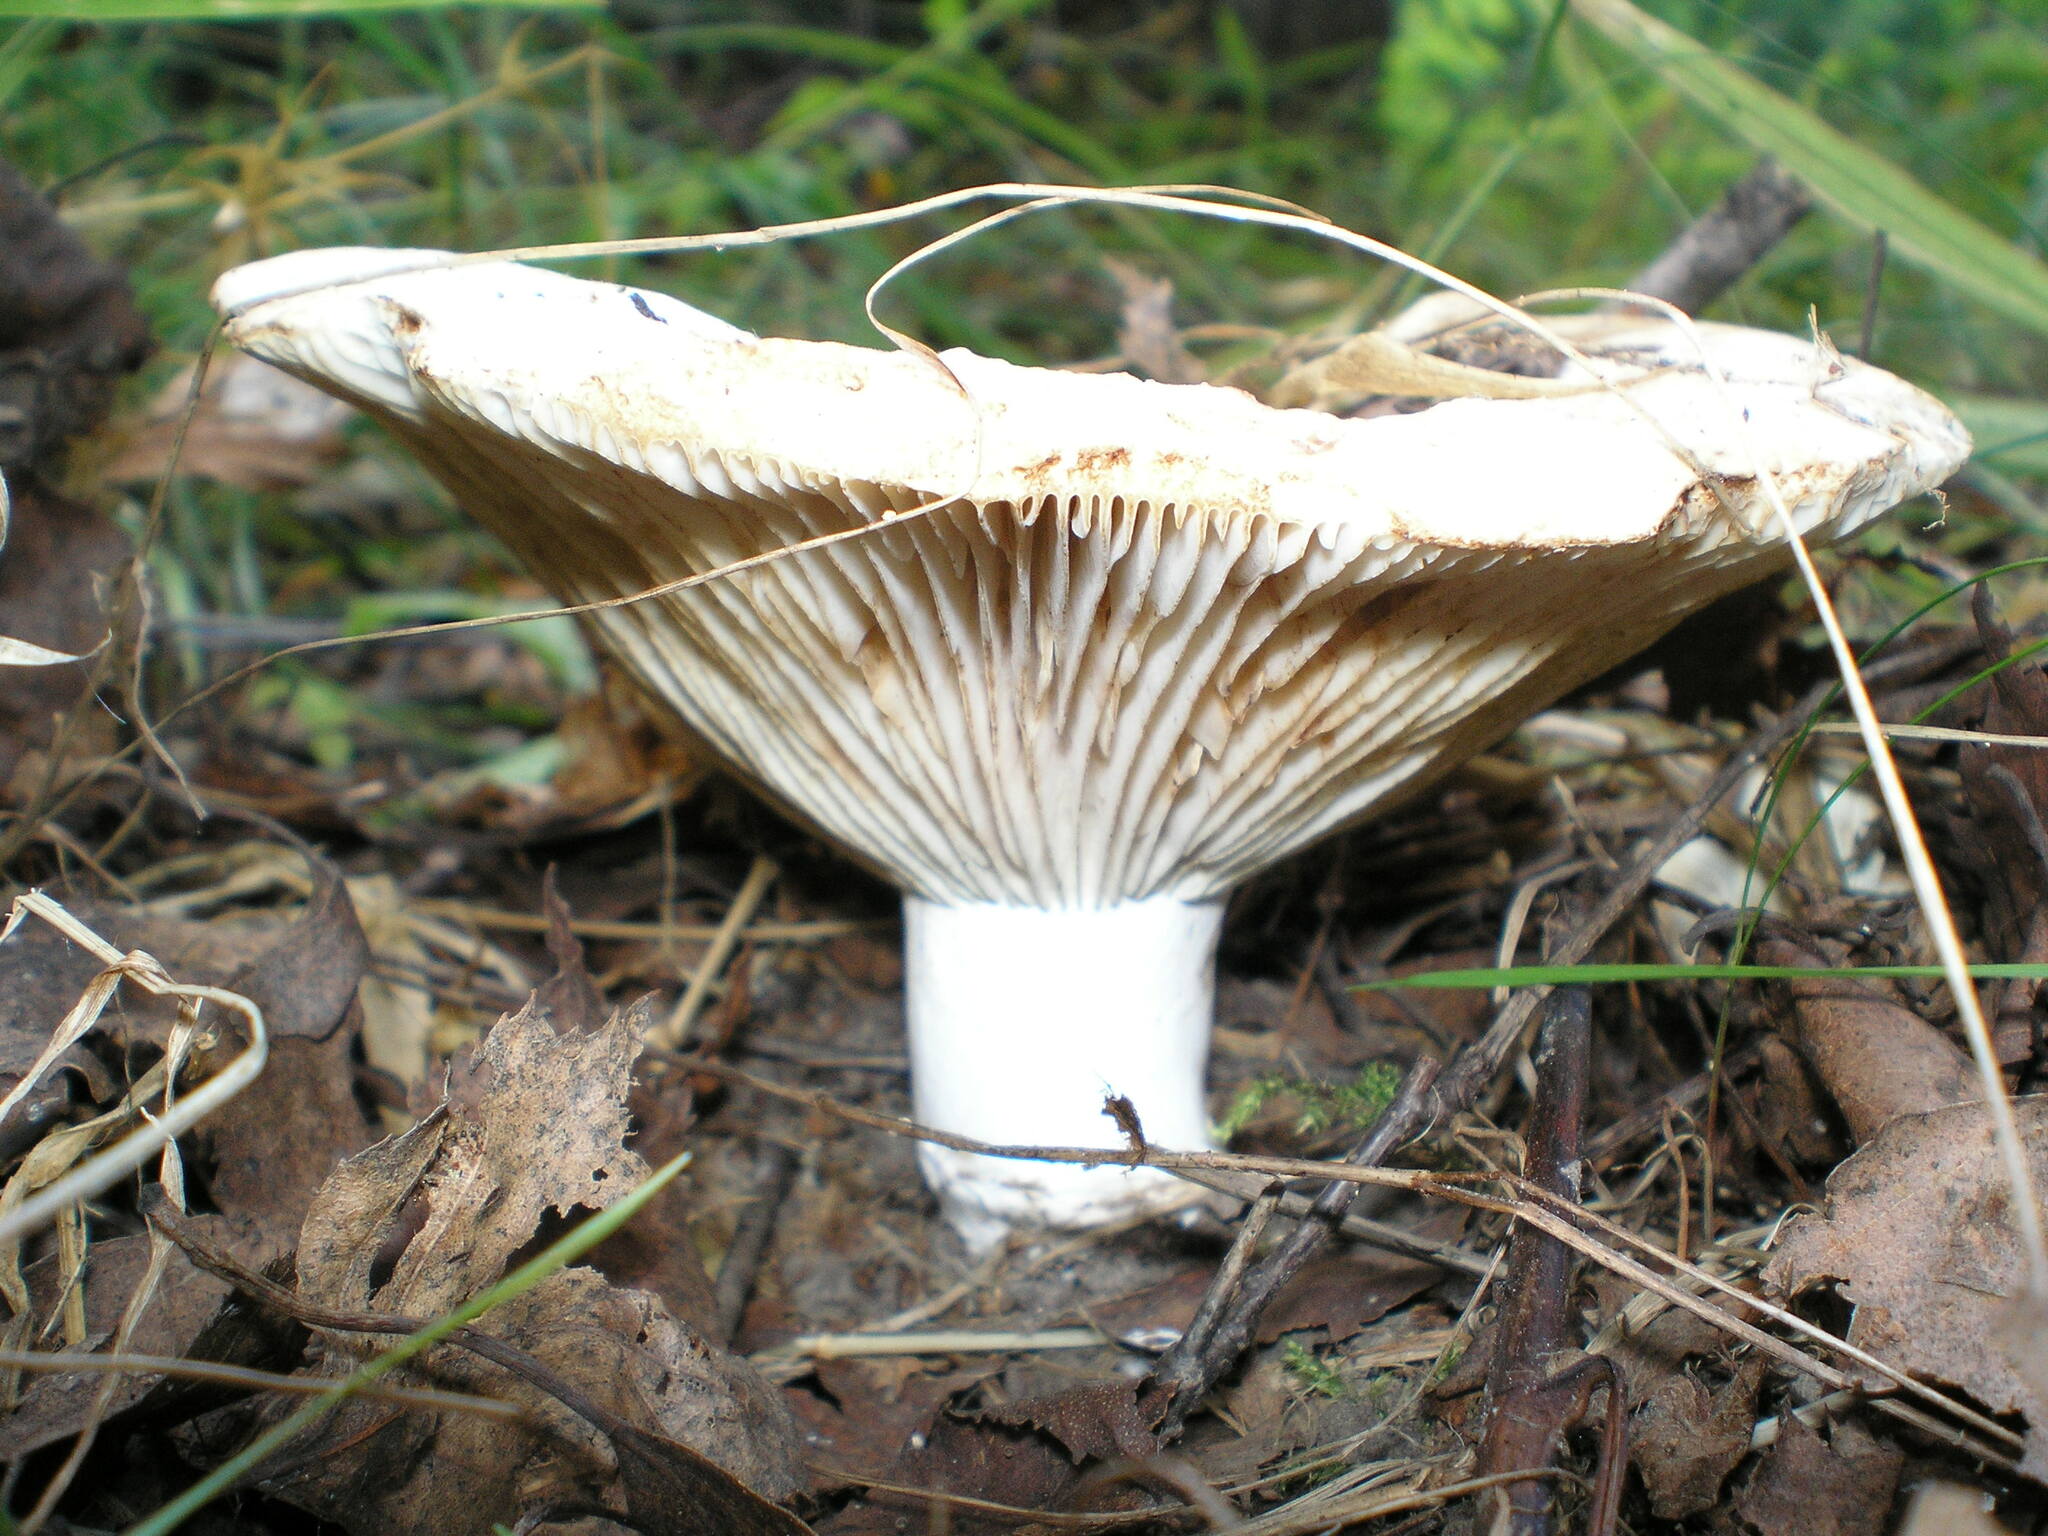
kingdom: Fungi
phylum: Basidiomycota
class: Agaricomycetes
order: Russulales
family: Russulaceae
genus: Russula
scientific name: Russula delica
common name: Milk white brittlegill
